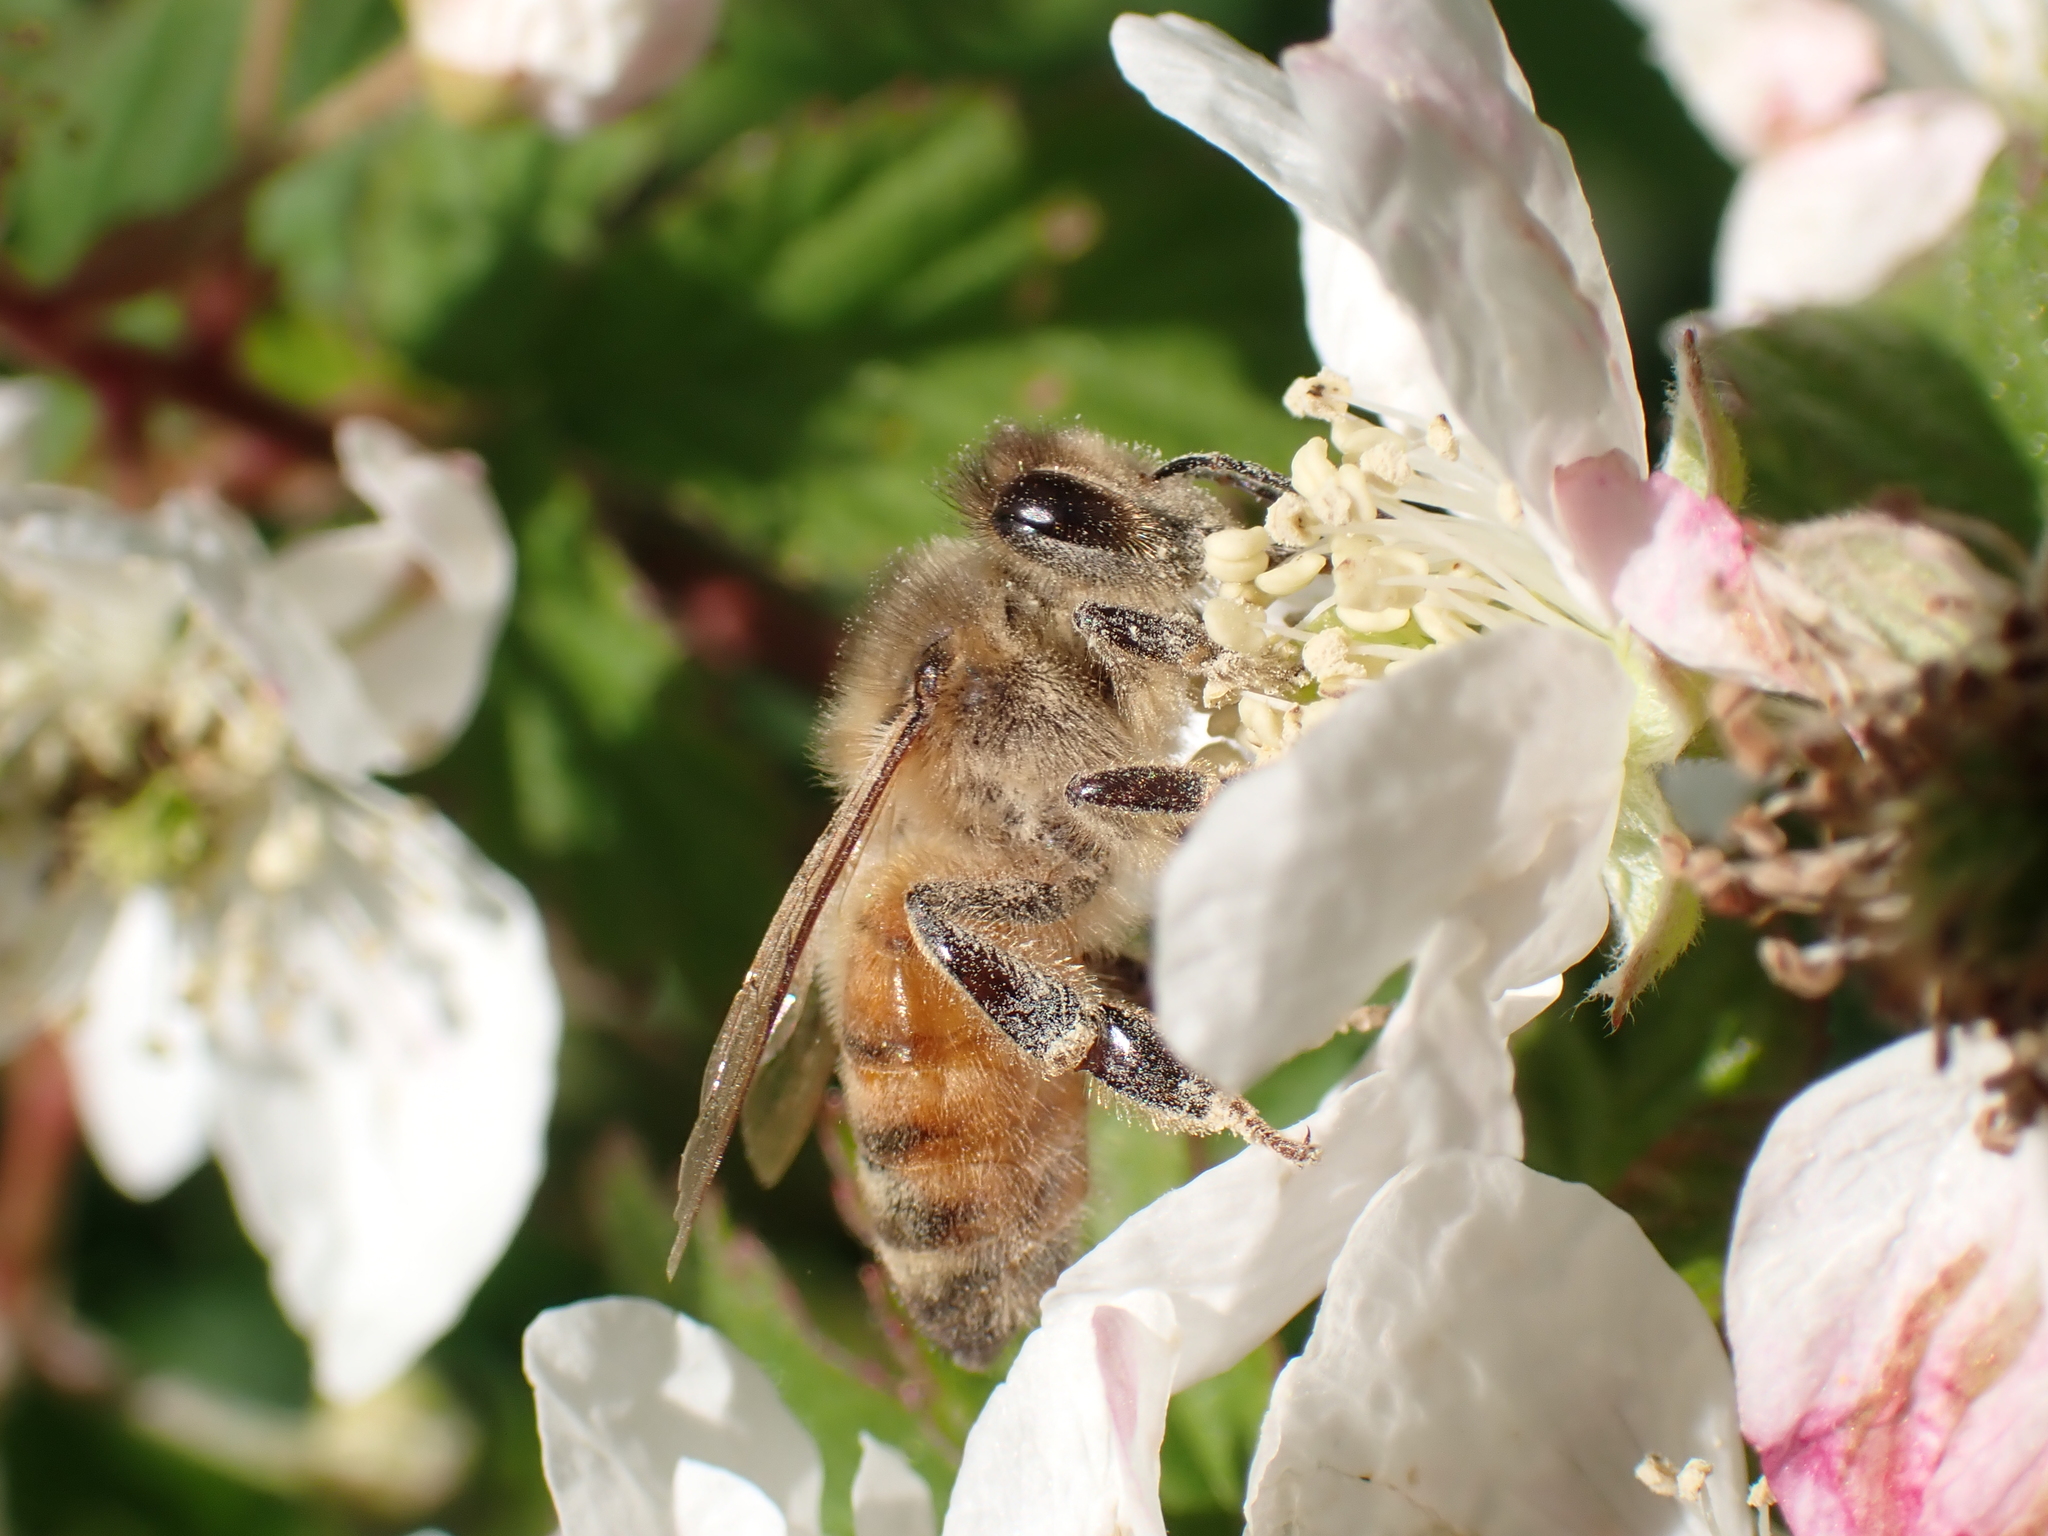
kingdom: Animalia
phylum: Arthropoda
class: Insecta
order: Hymenoptera
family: Apidae
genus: Apis
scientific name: Apis mellifera
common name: Honey bee
